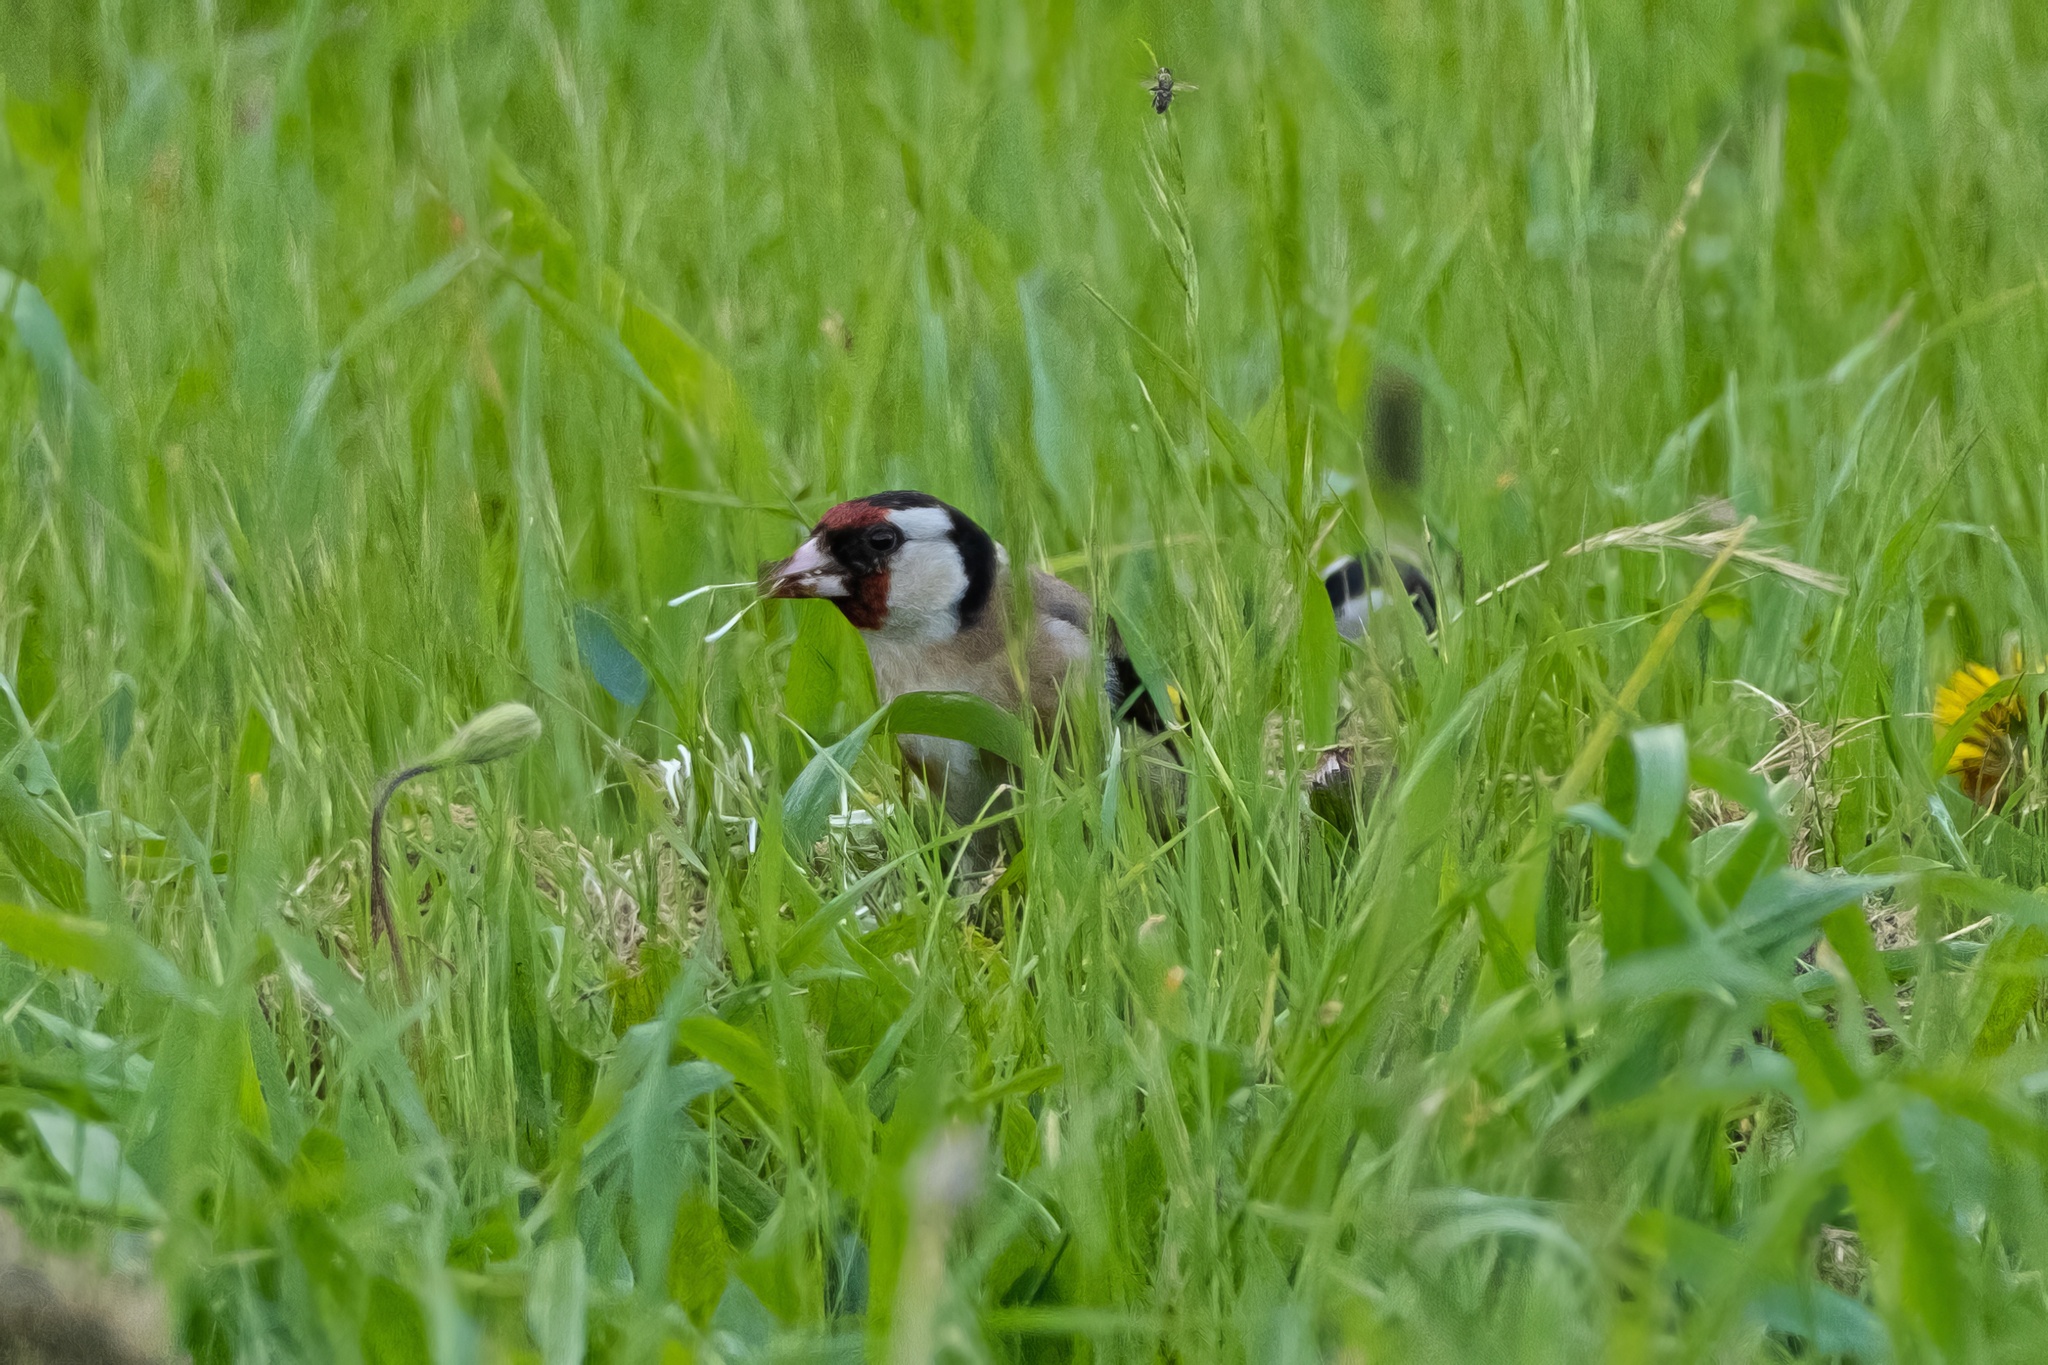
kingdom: Animalia
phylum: Chordata
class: Aves
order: Passeriformes
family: Fringillidae
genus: Carduelis
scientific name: Carduelis carduelis
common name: European goldfinch
